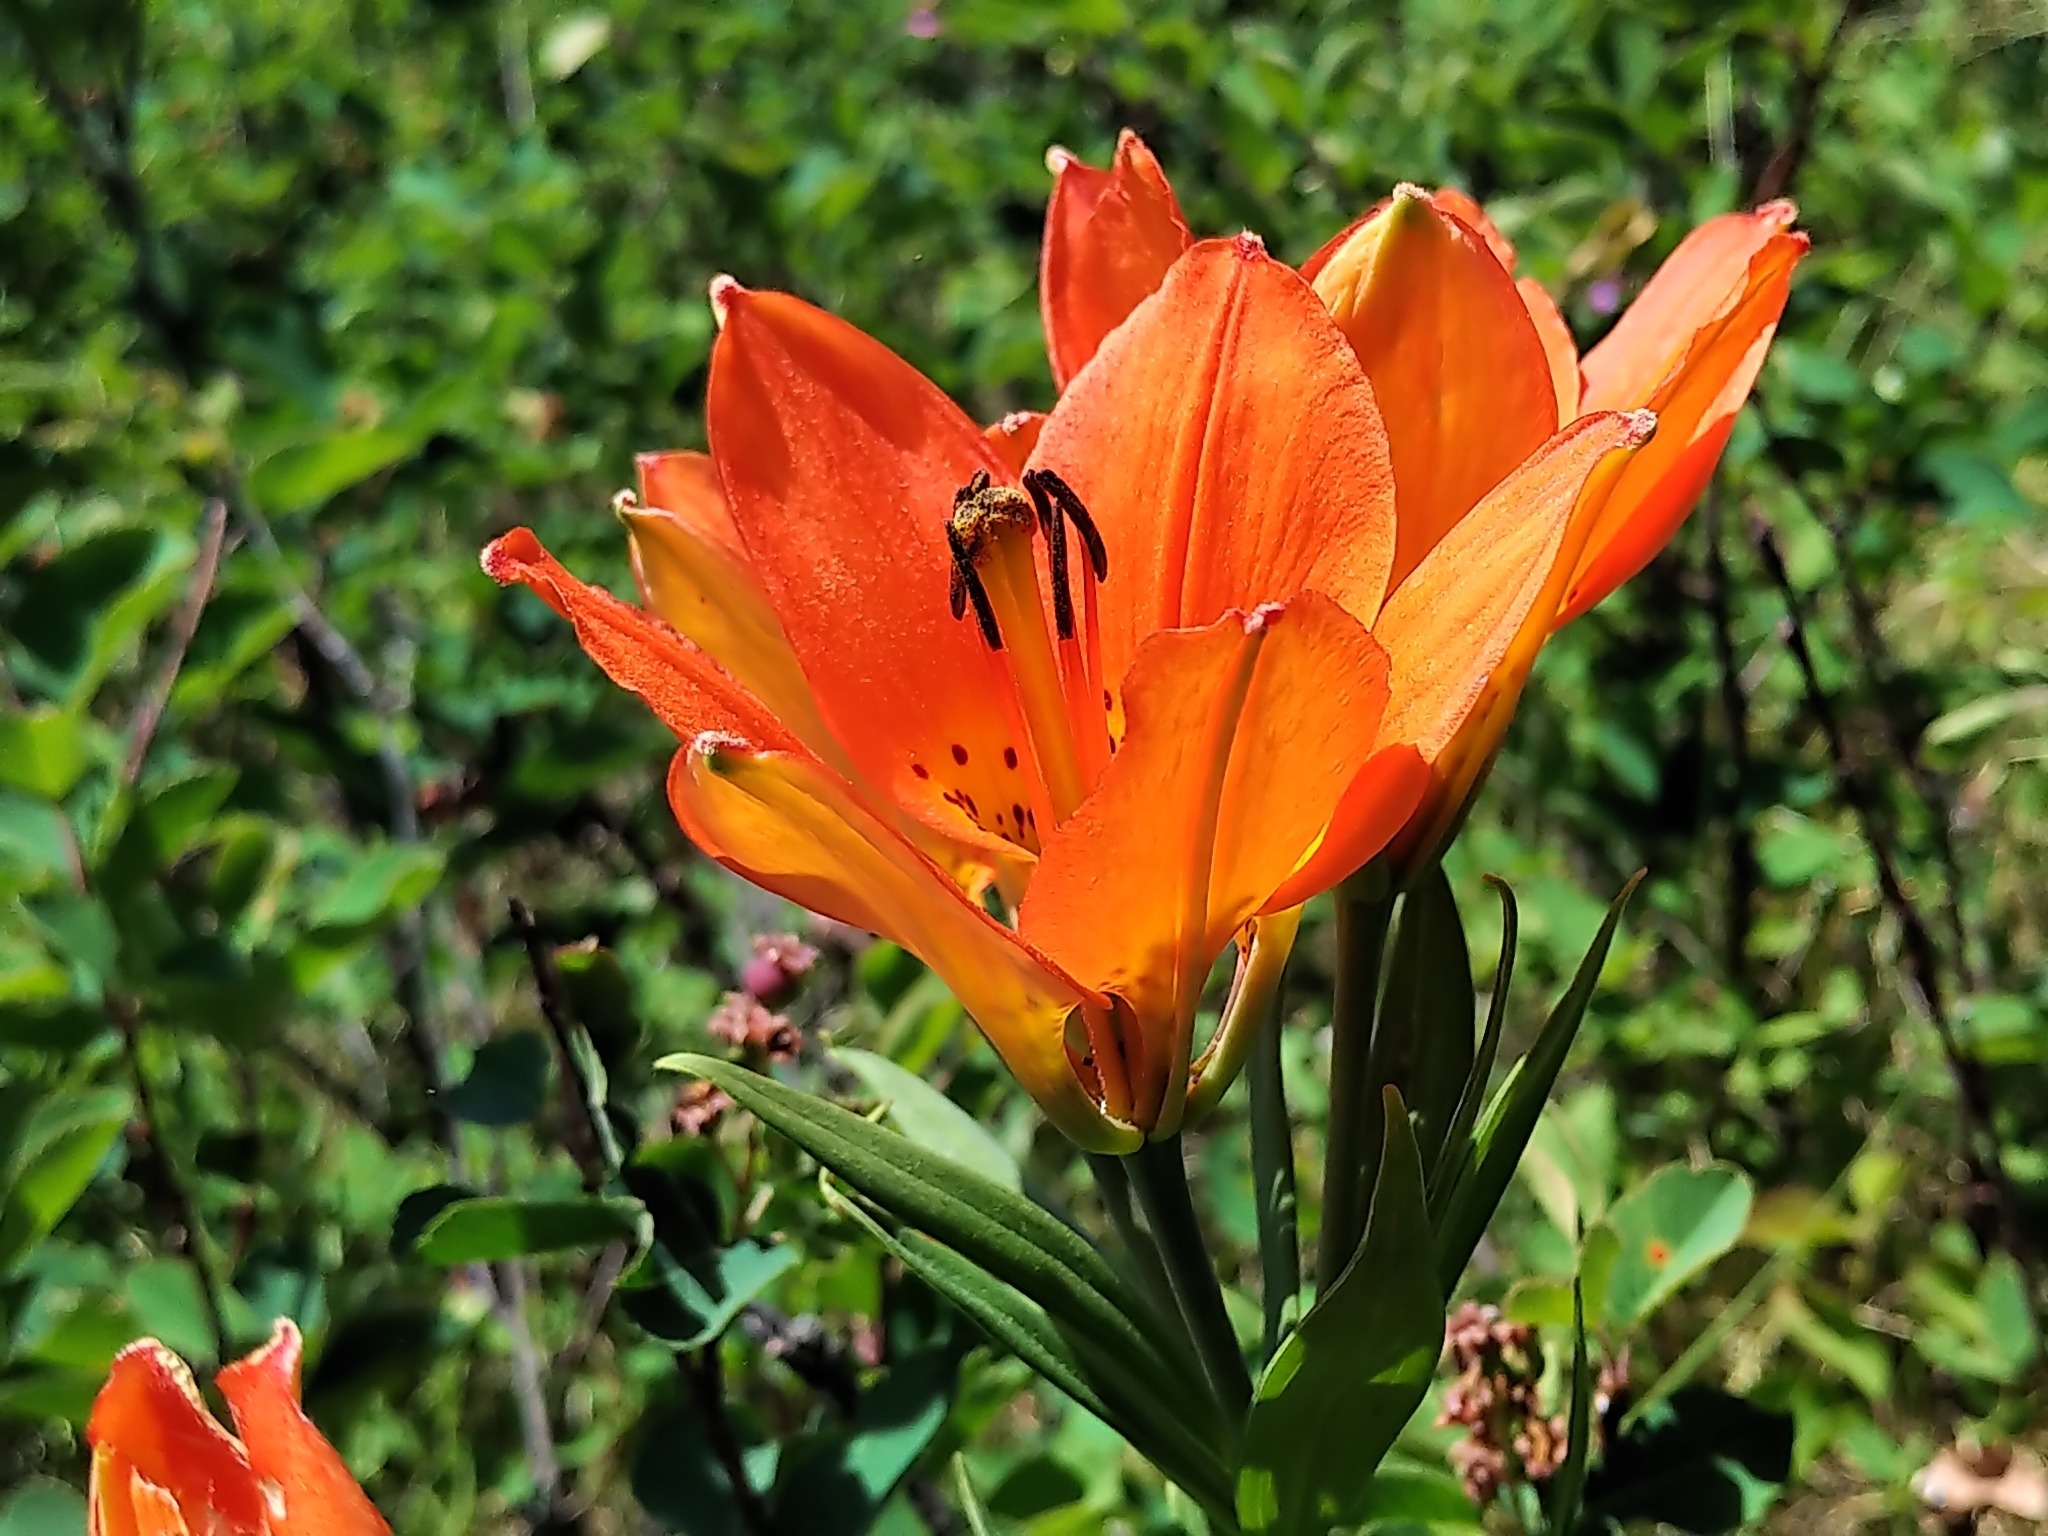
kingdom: Plantae
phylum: Tracheophyta
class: Liliopsida
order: Liliales
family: Liliaceae
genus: Lilium
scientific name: Lilium philadelphicum
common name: Red lily
